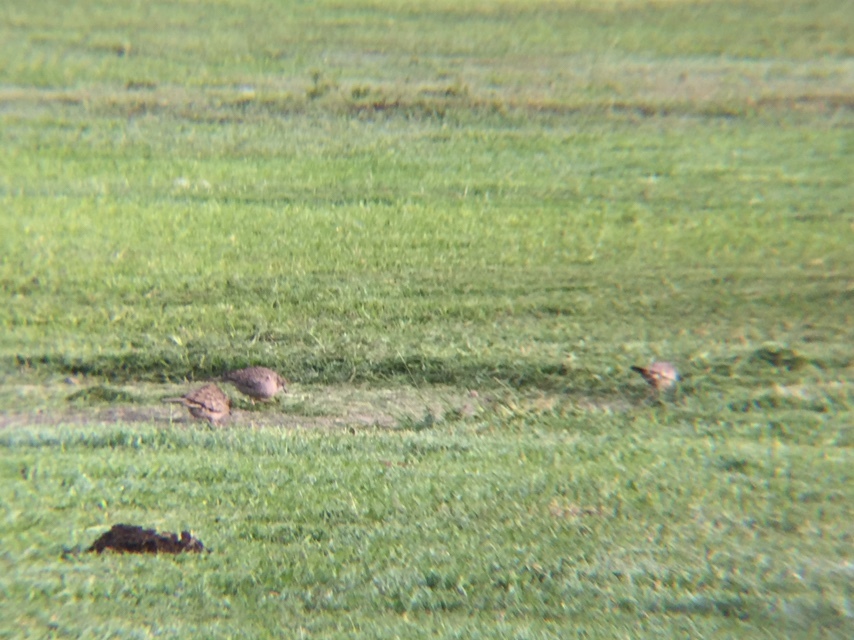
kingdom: Animalia
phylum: Chordata
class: Aves
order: Columbiformes
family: Columbidae
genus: Columbina
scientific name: Columbina inca
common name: Inca dove
